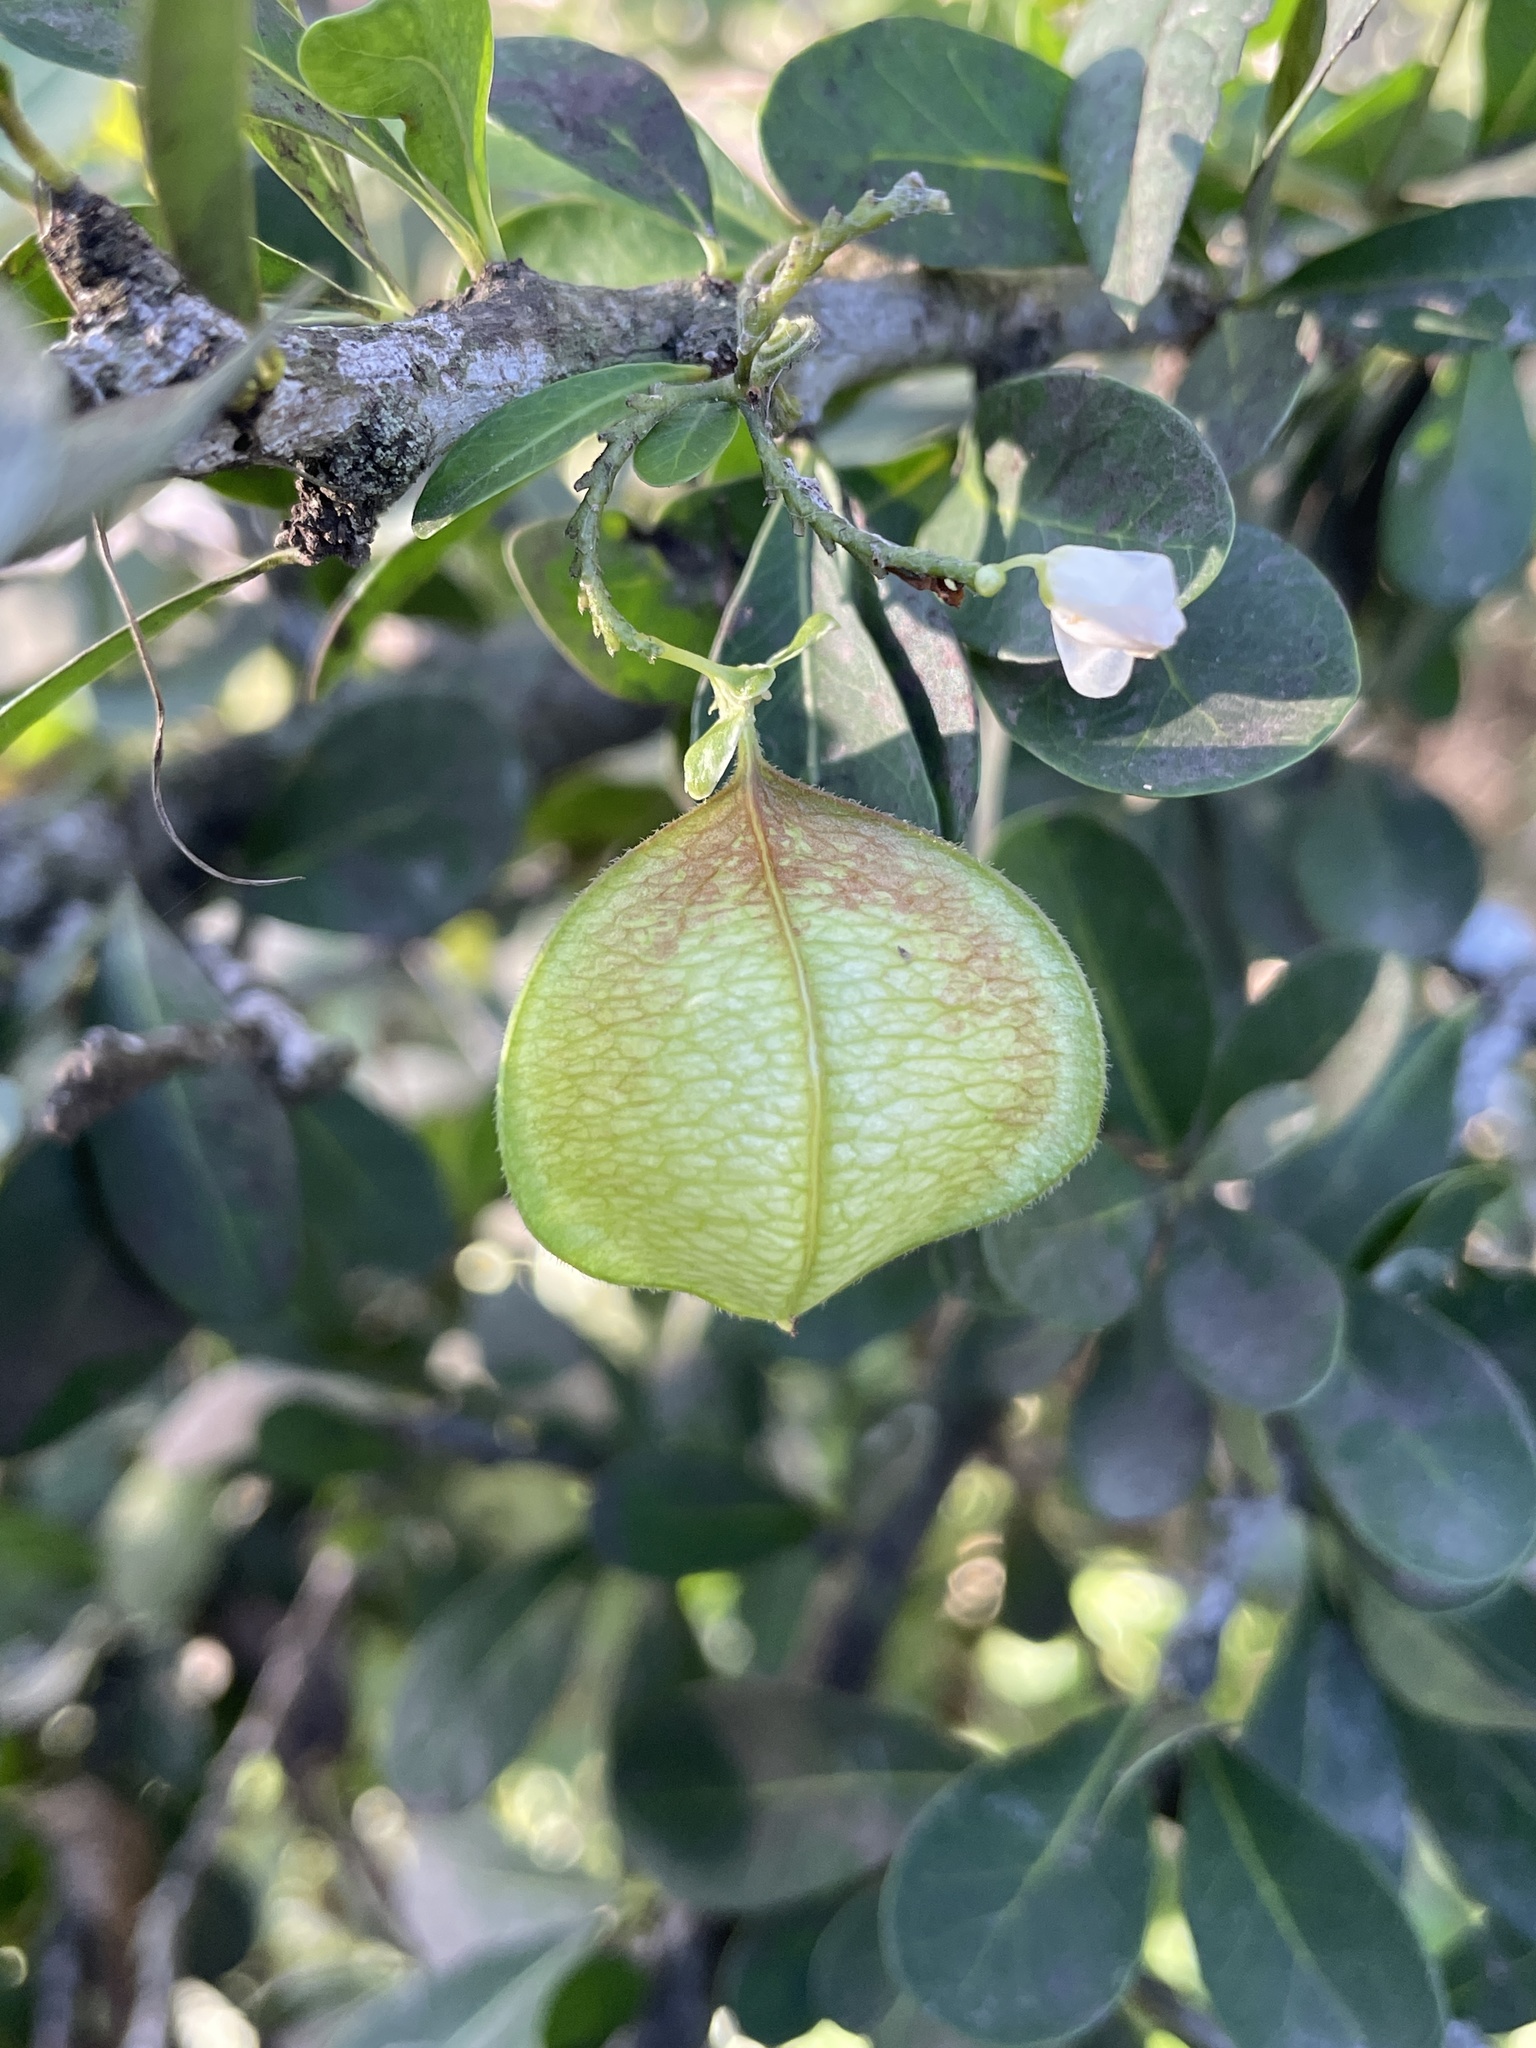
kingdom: Plantae
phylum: Tracheophyta
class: Magnoliopsida
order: Sapindales
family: Sapindaceae
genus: Cardiospermum
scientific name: Cardiospermum halicacabum
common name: Balloon vine
